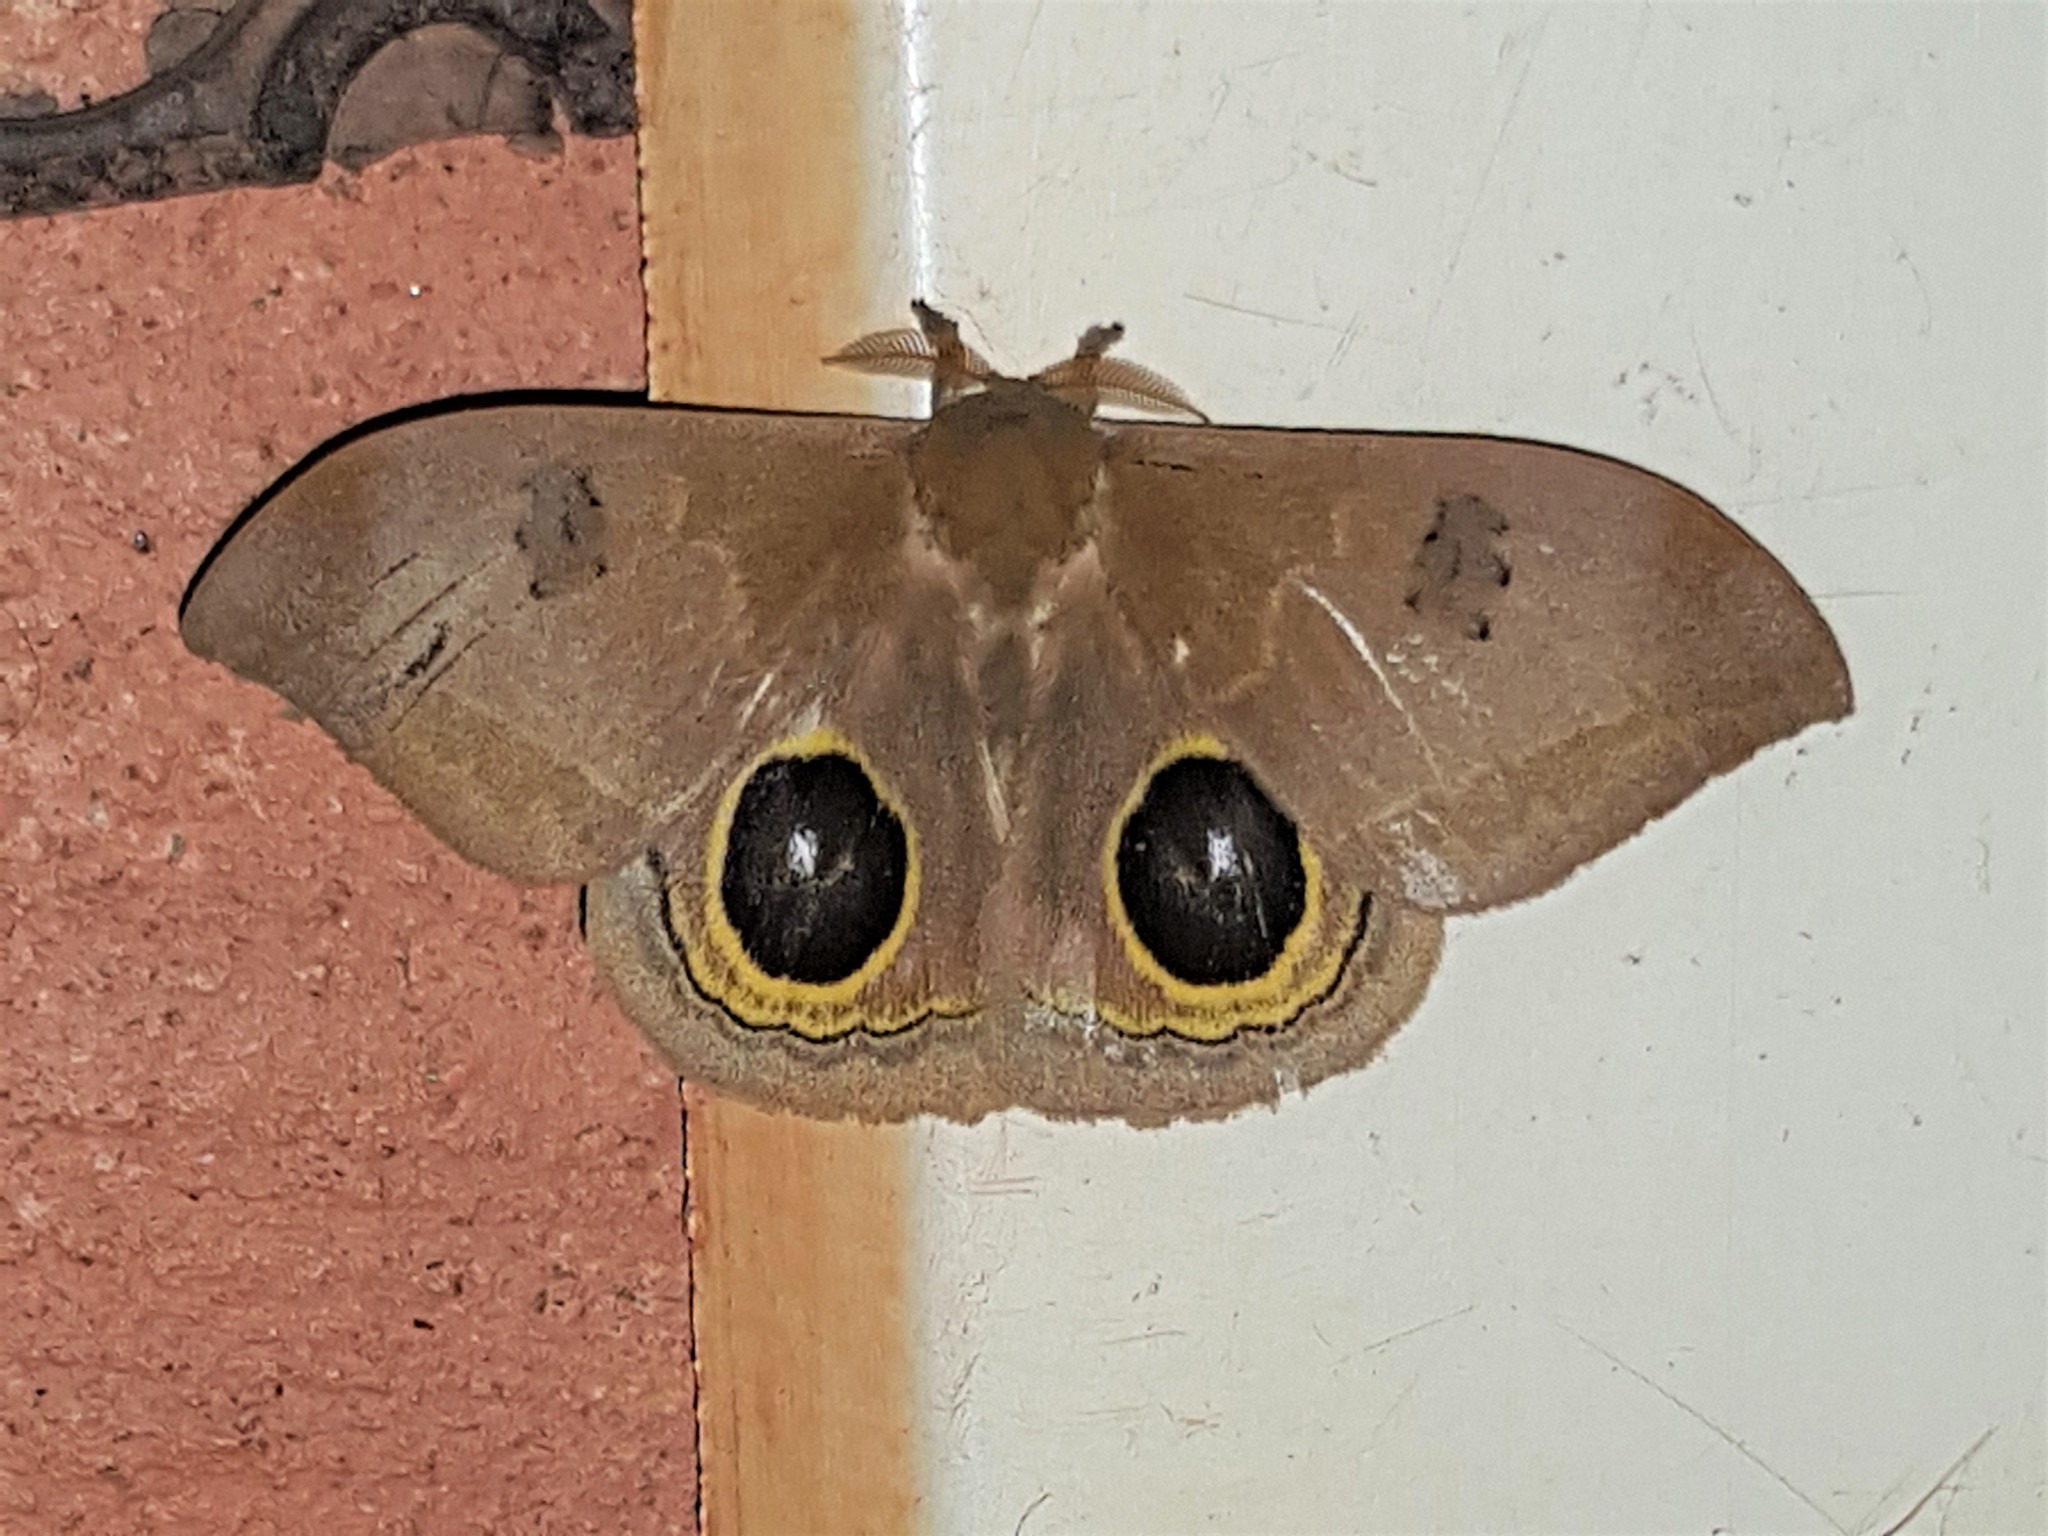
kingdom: Animalia
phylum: Arthropoda
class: Insecta
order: Lepidoptera
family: Saturniidae
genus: Automeris
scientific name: Automeris midea
